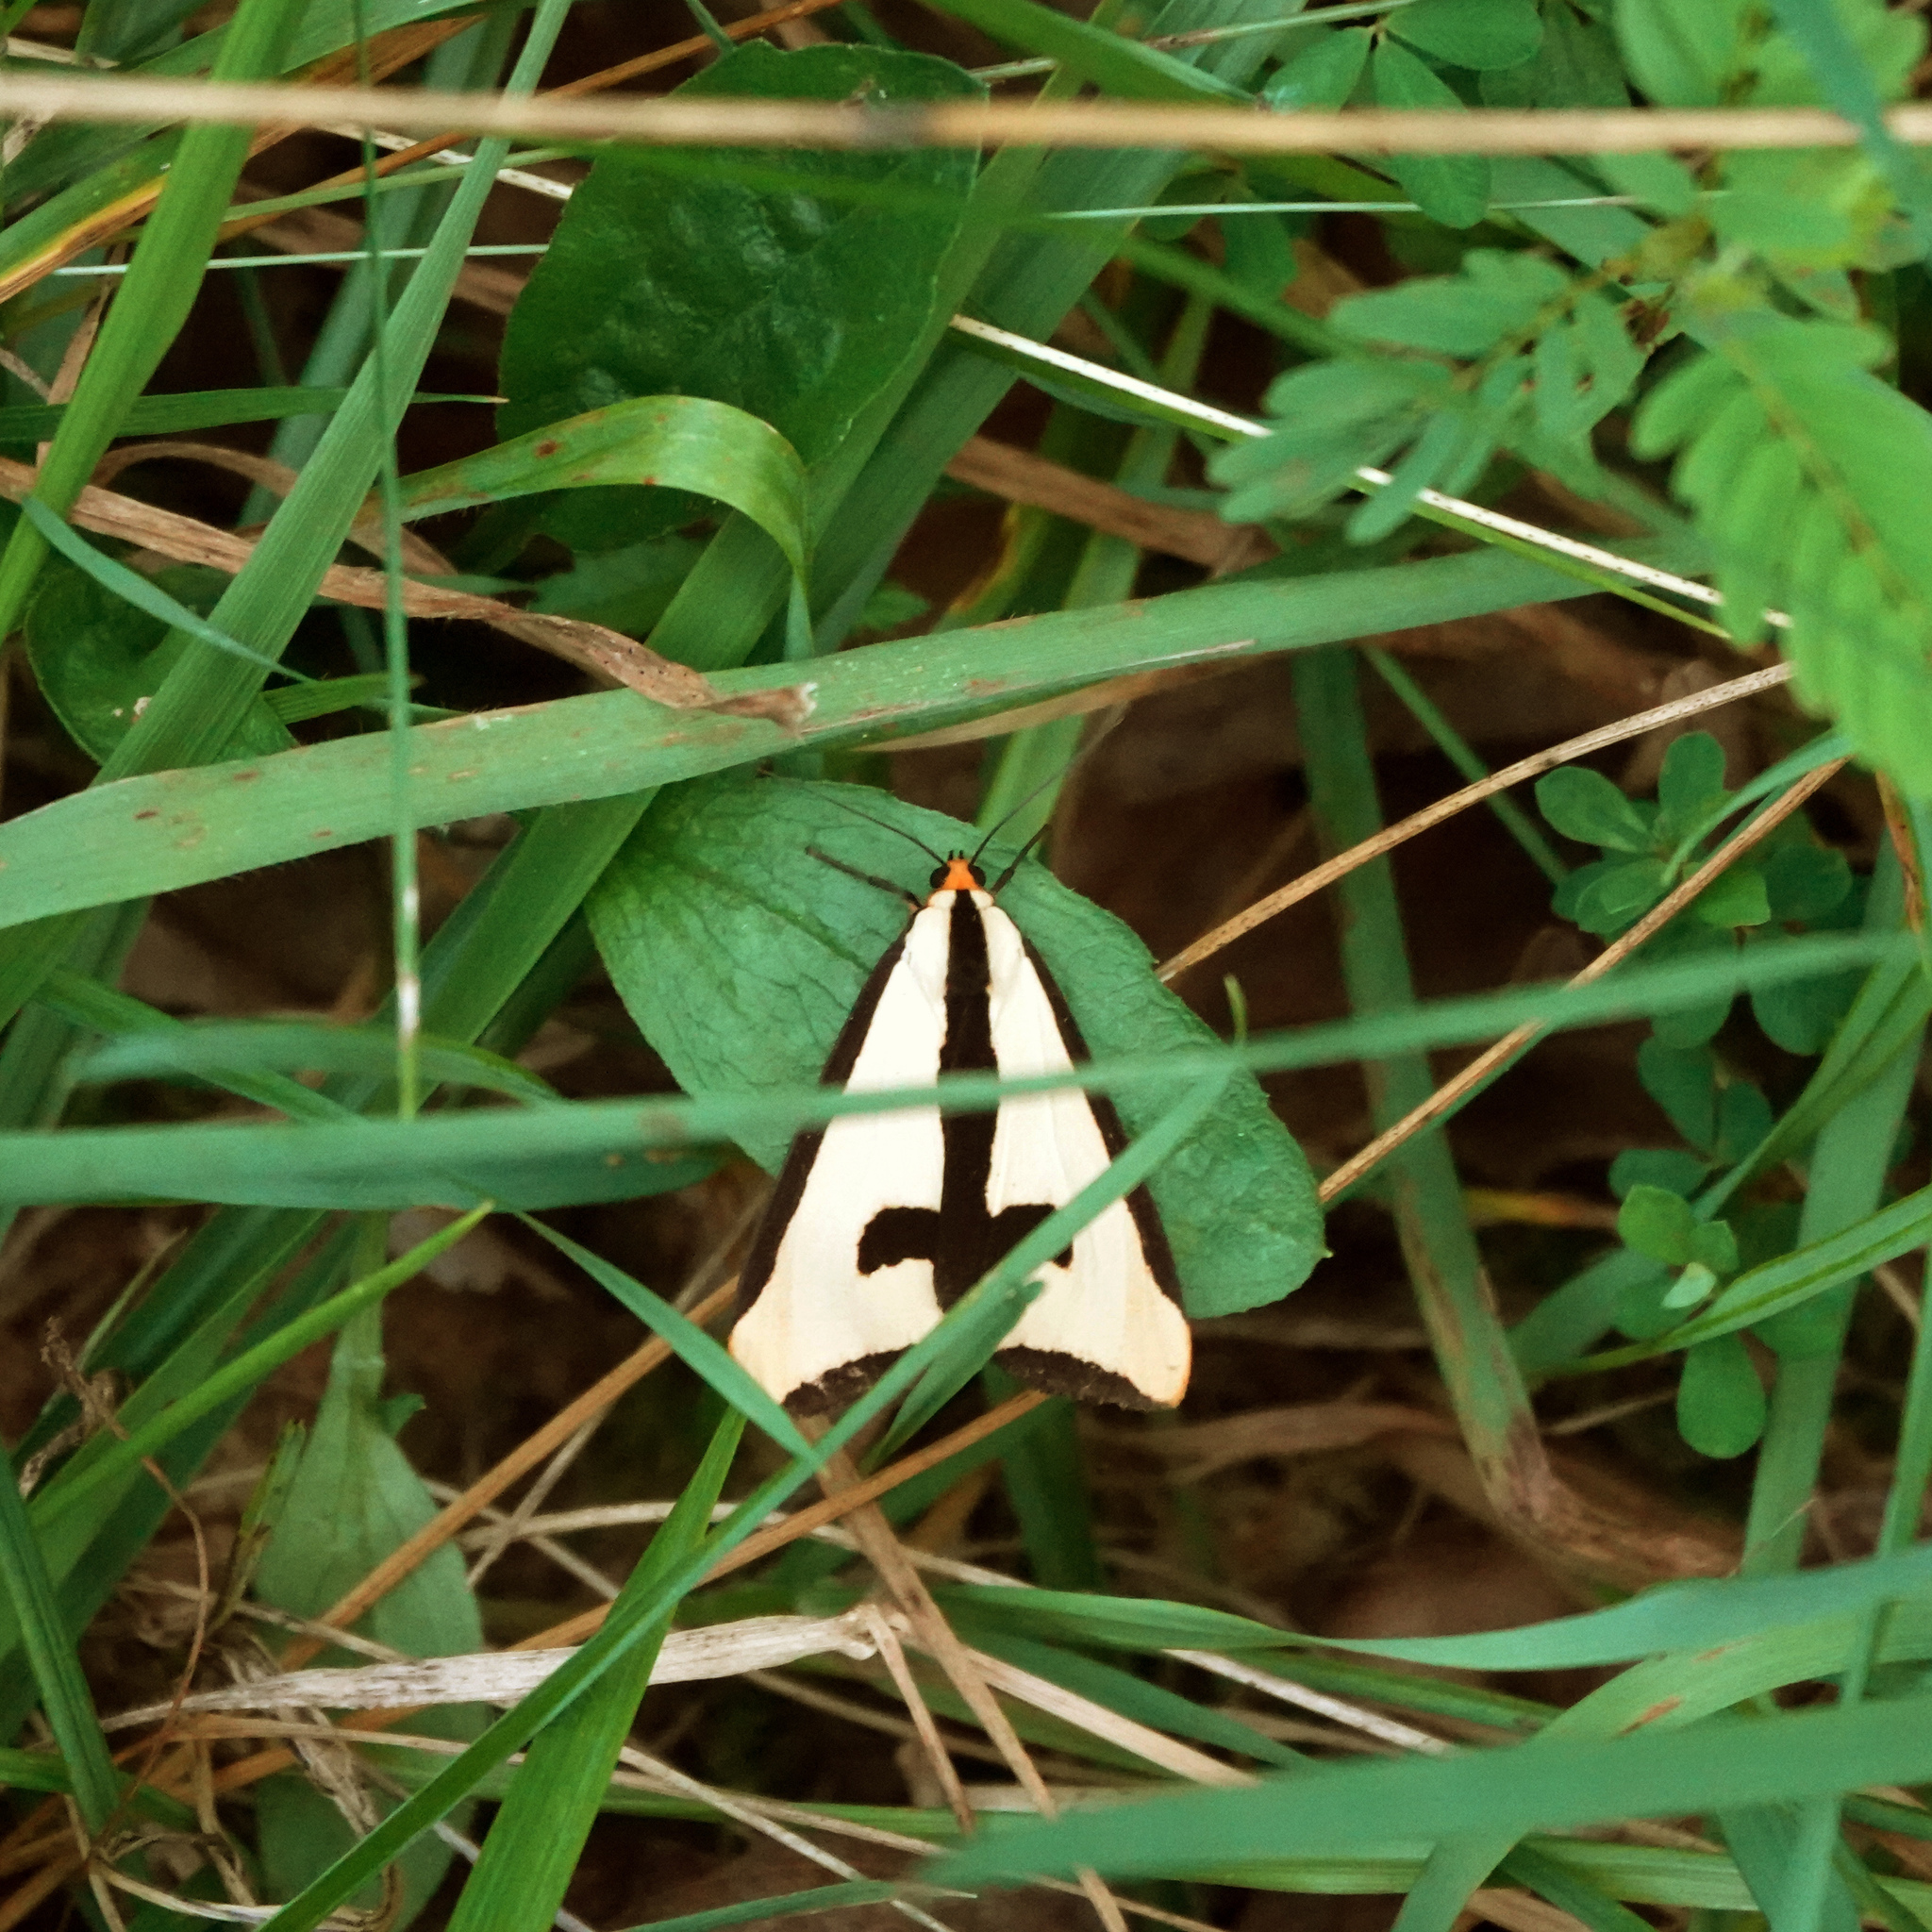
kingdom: Animalia
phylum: Arthropoda
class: Insecta
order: Lepidoptera
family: Erebidae
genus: Haploa
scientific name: Haploa clymene
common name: Clymene moth
